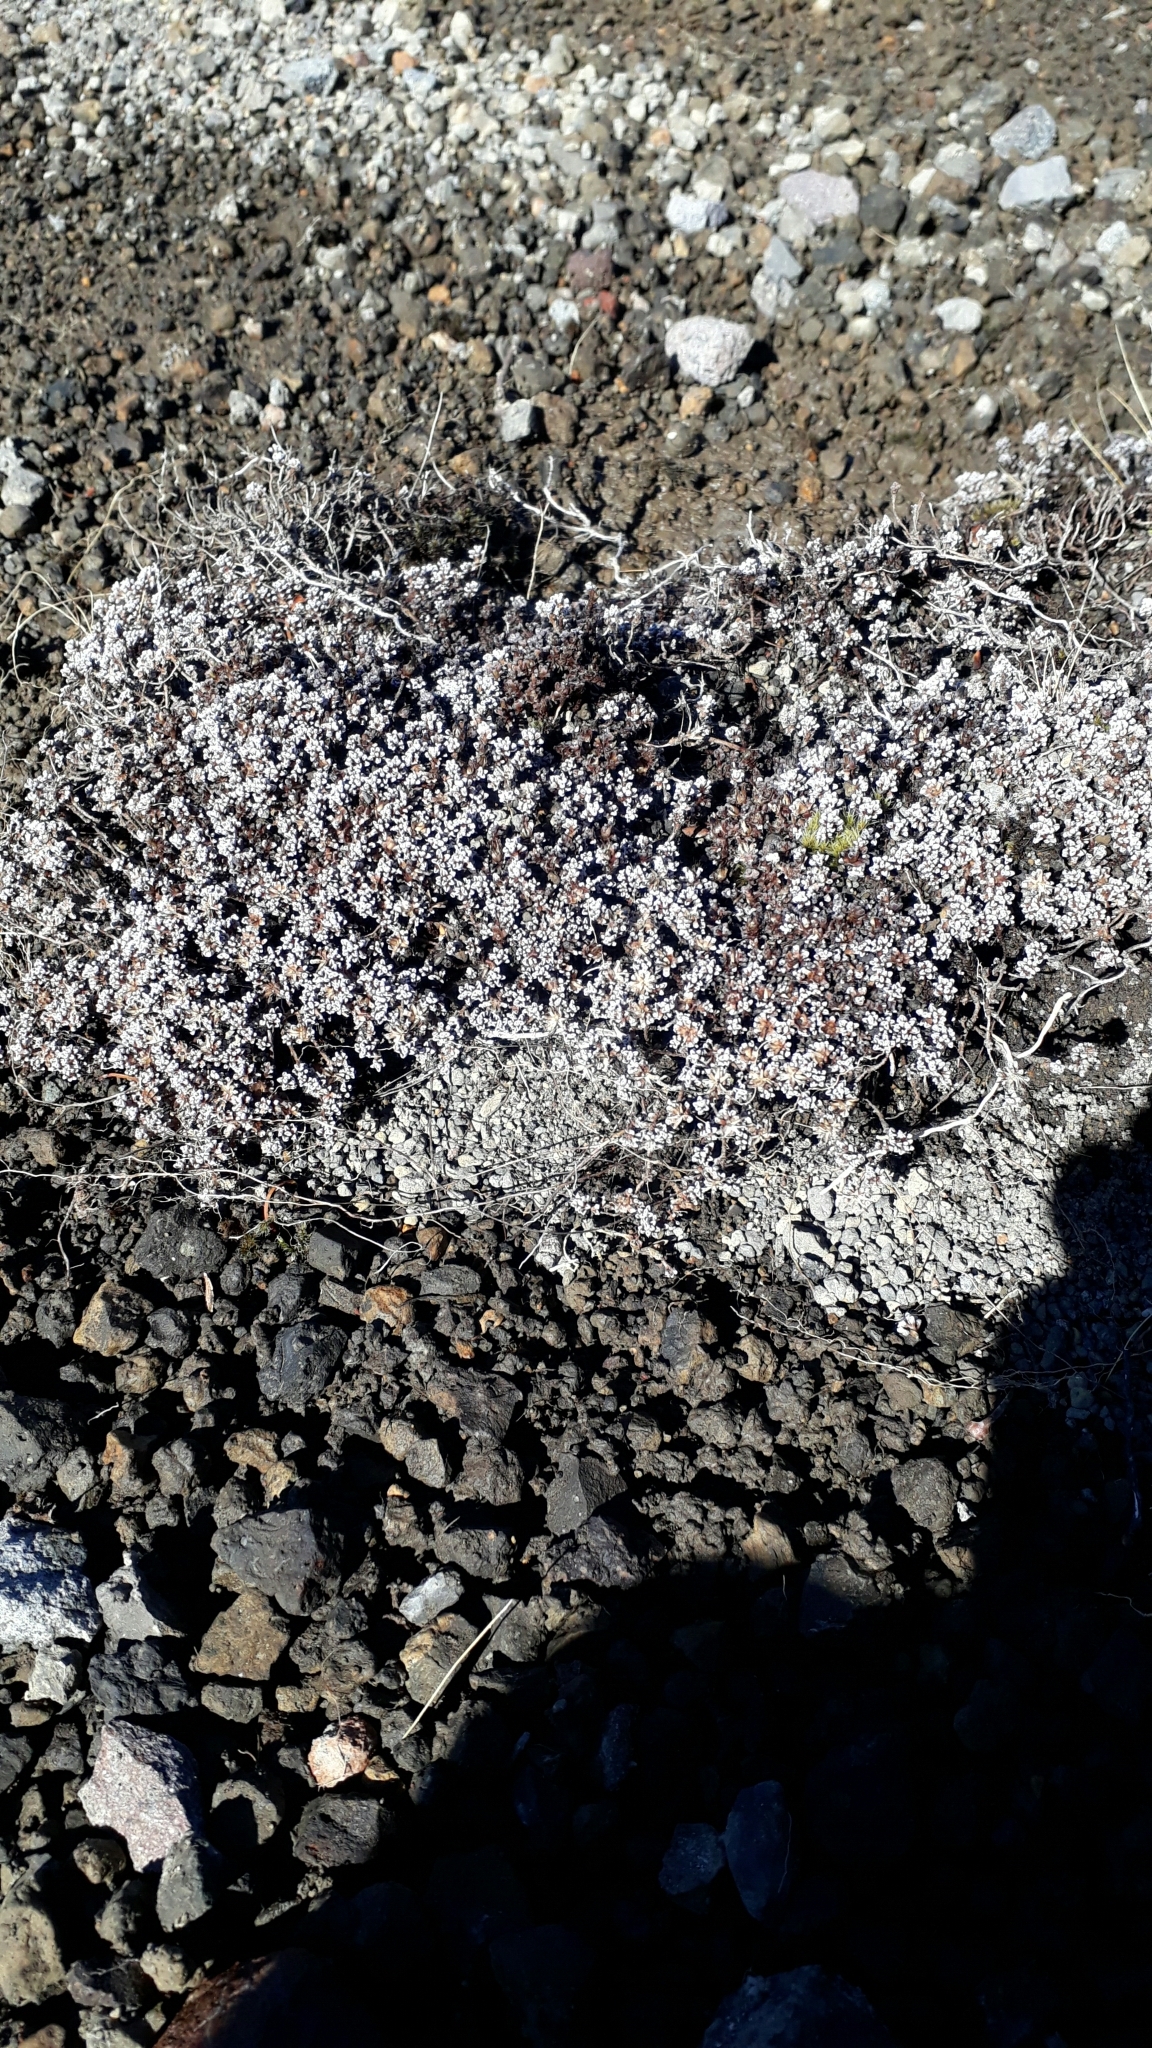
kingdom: Plantae
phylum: Tracheophyta
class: Magnoliopsida
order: Asterales
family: Asteraceae
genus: Raoulia
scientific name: Raoulia albosericea
